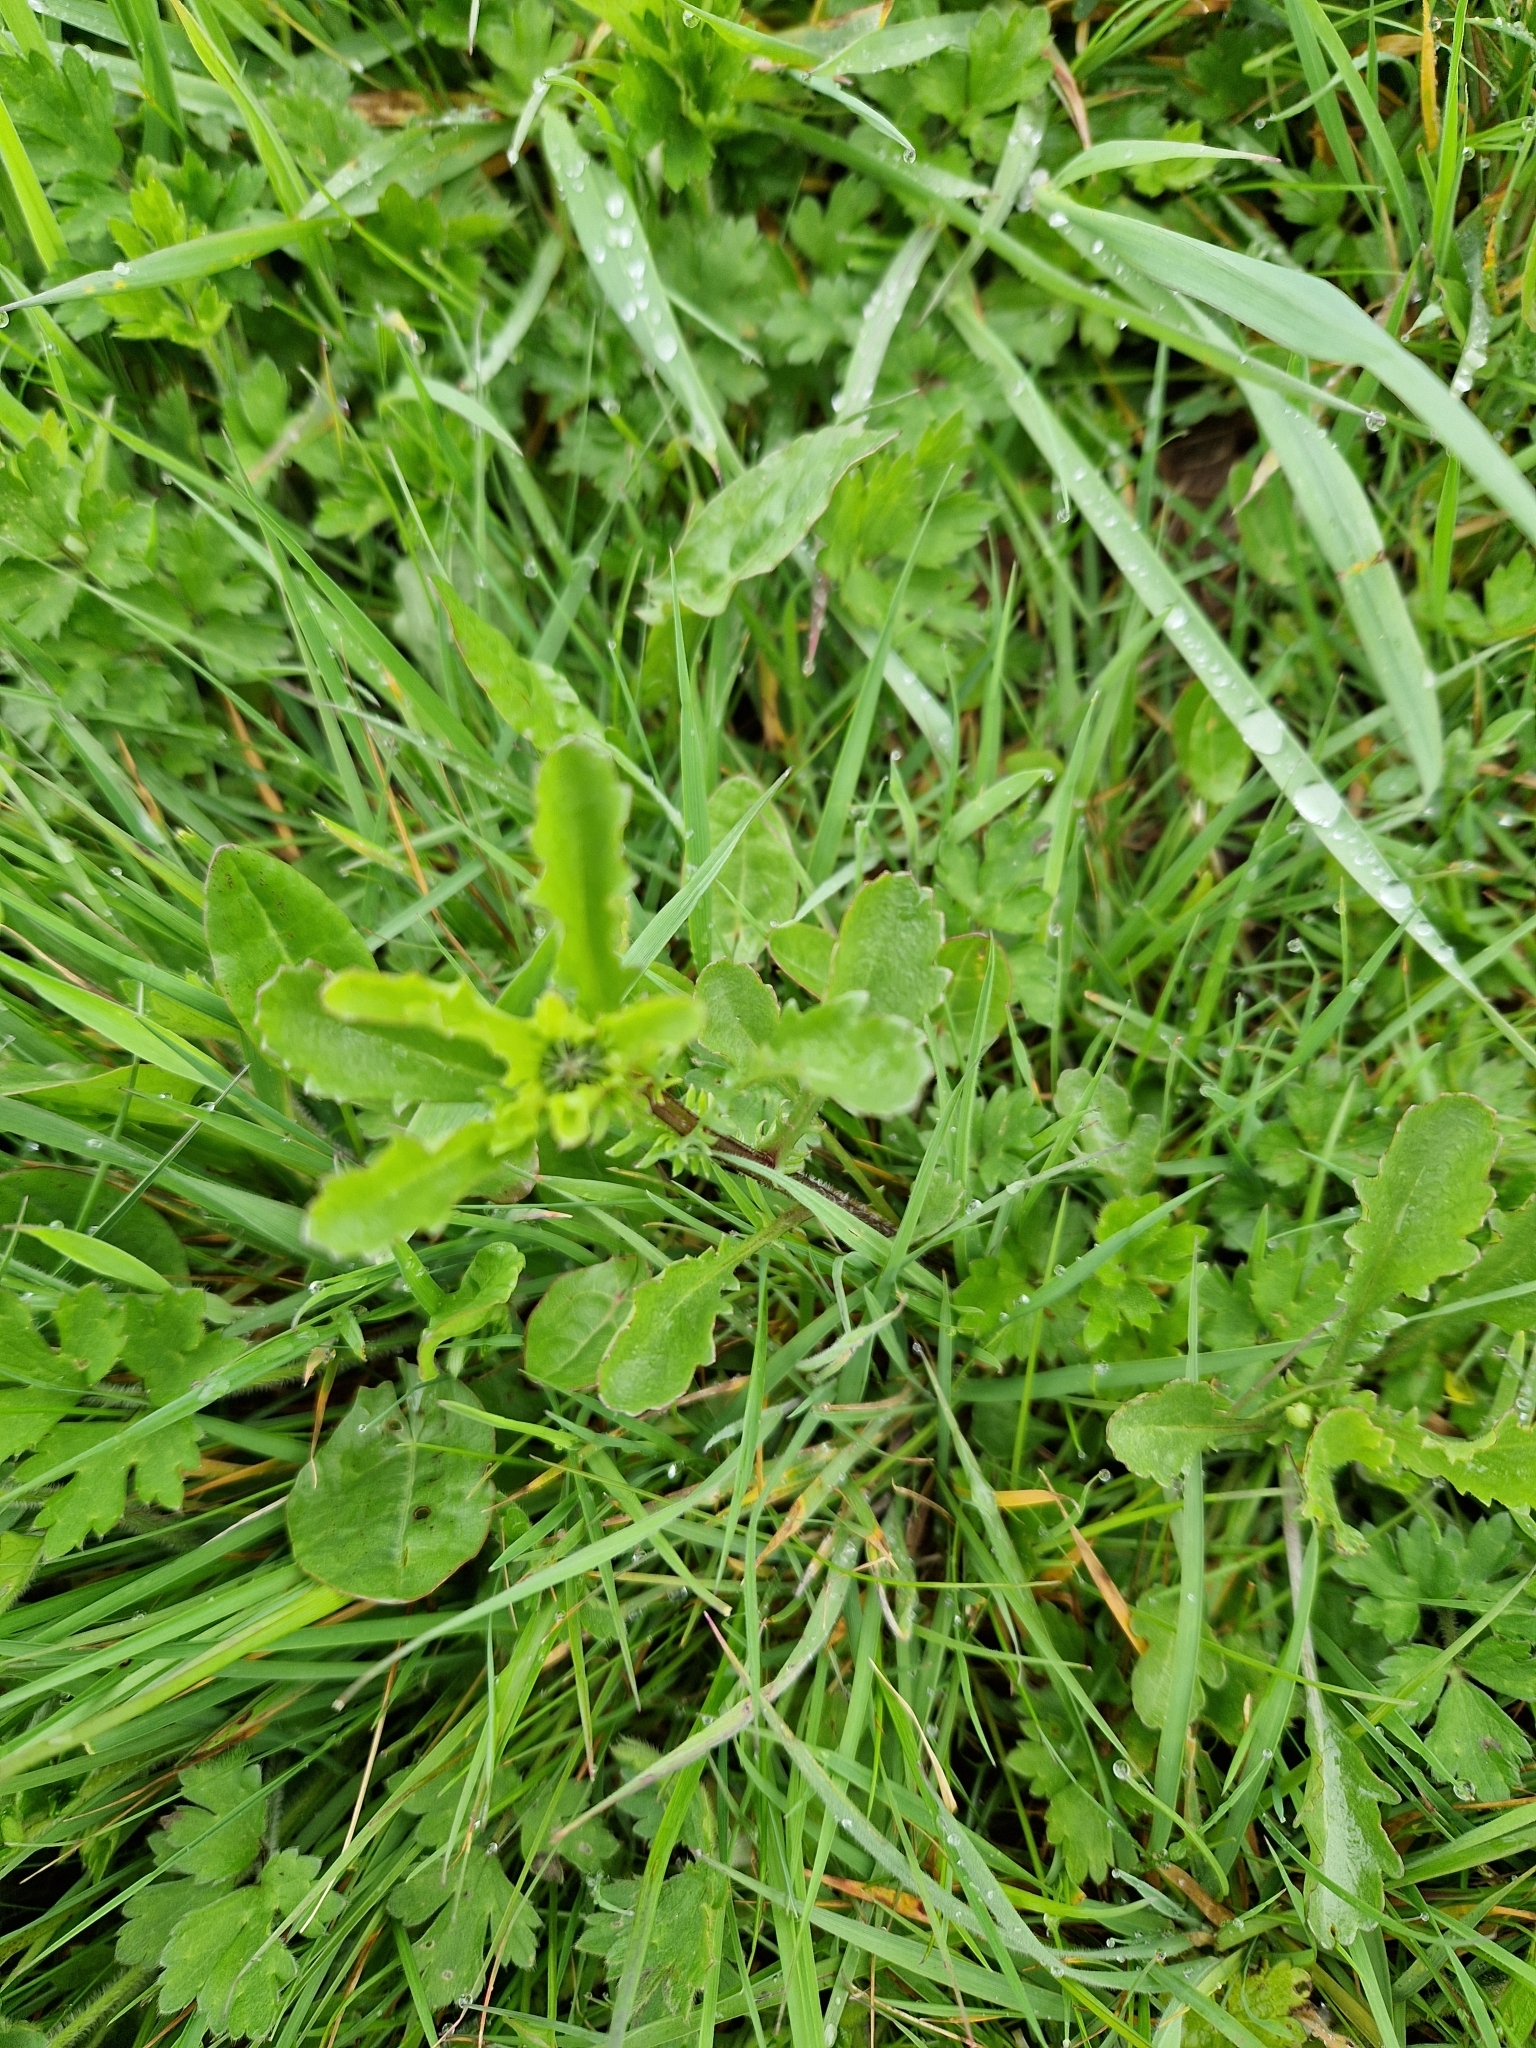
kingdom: Plantae
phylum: Tracheophyta
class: Magnoliopsida
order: Asterales
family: Asteraceae
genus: Leucanthemum
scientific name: Leucanthemum vulgare
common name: Oxeye daisy
